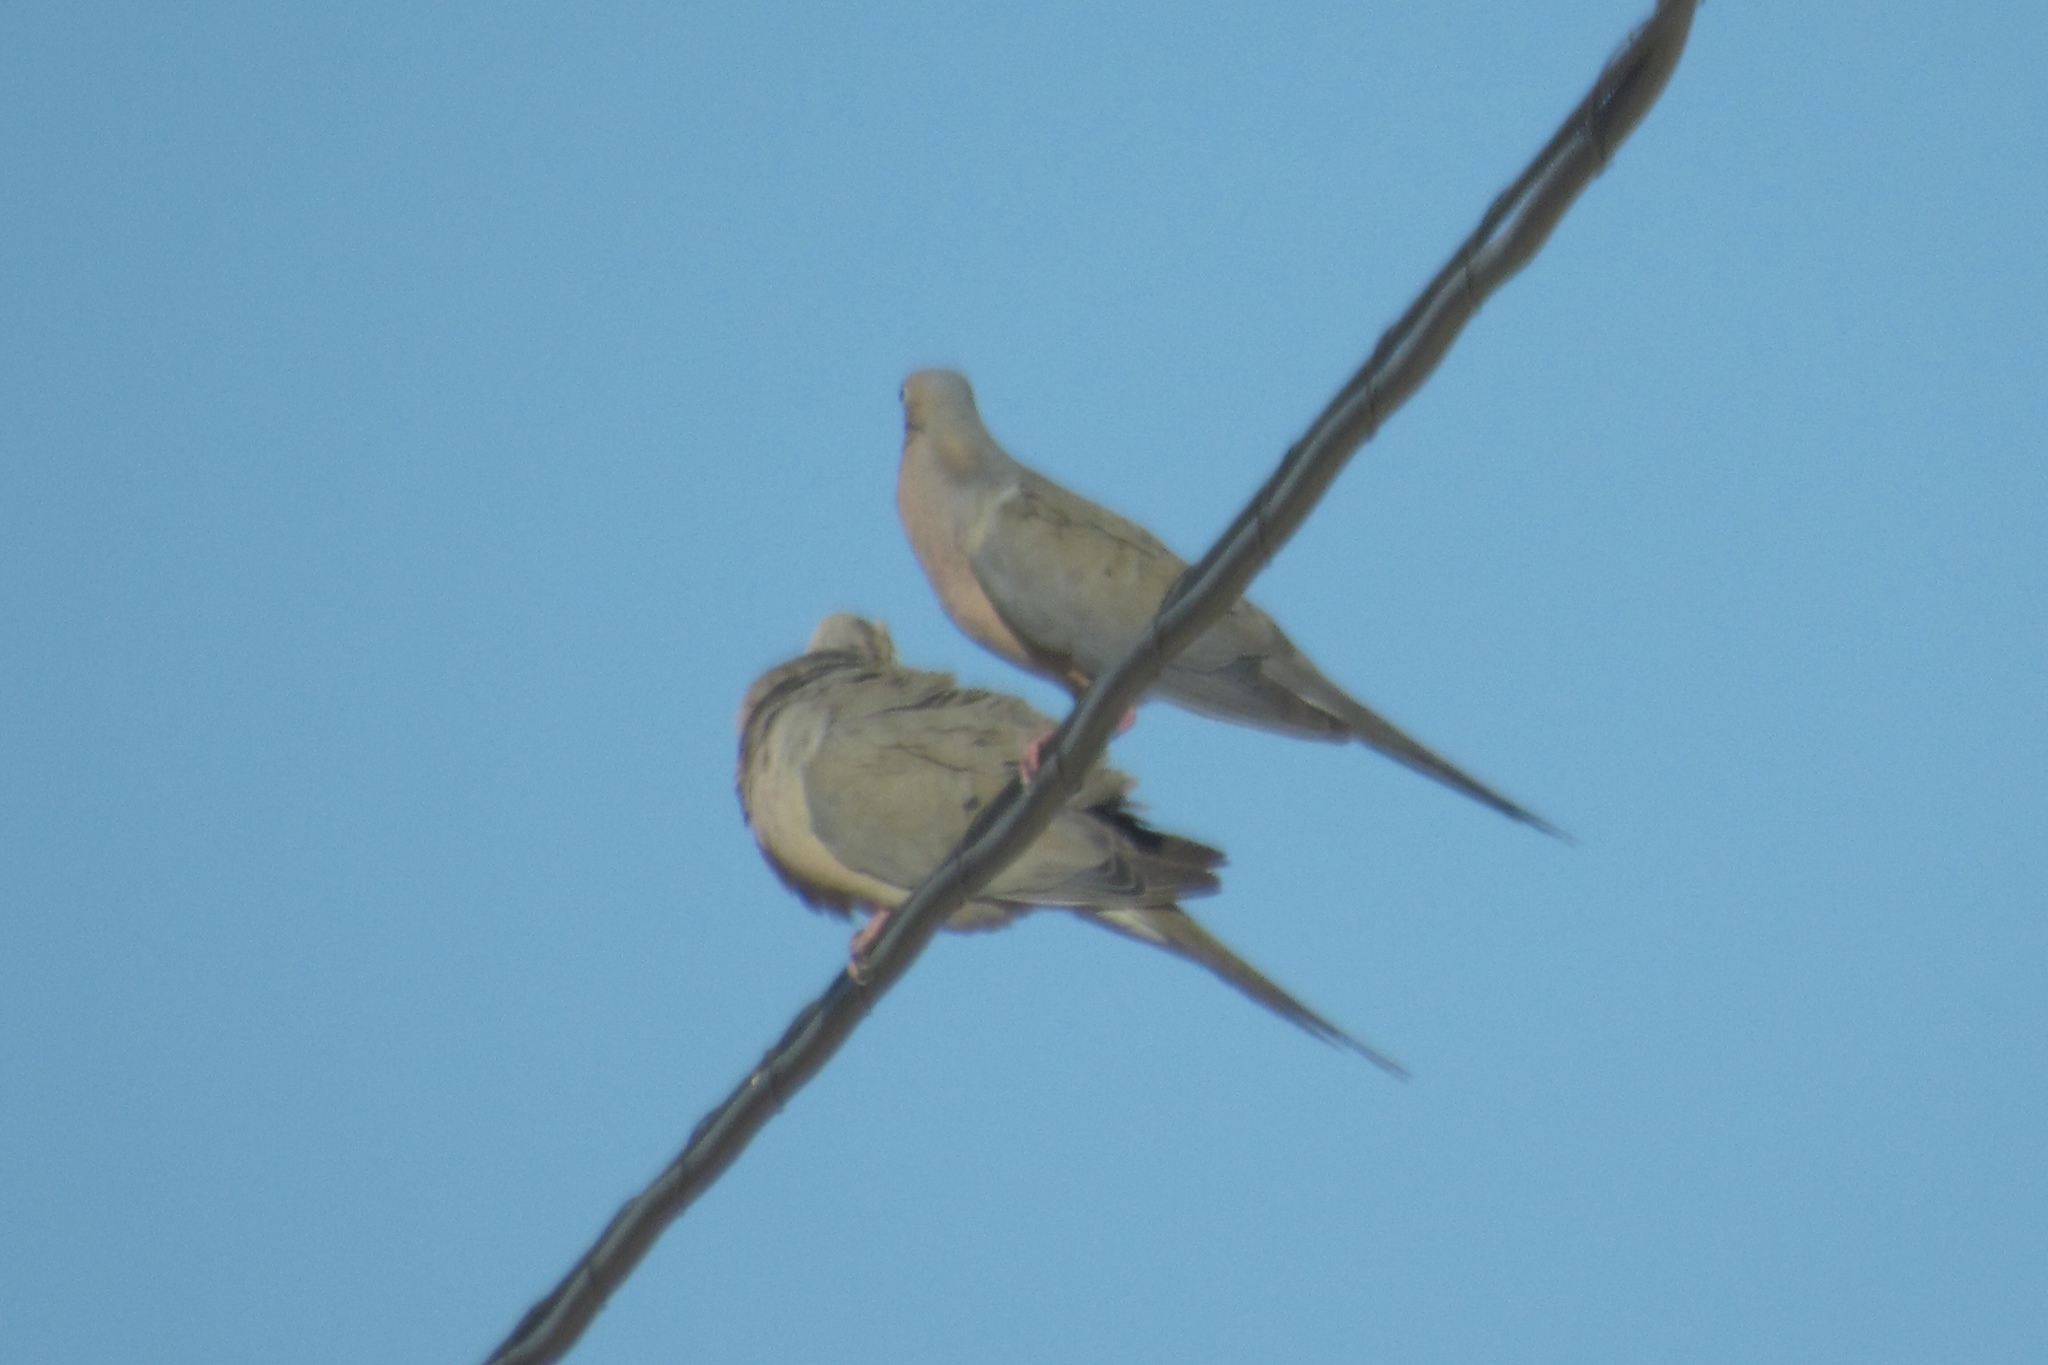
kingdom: Animalia
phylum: Chordata
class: Aves
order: Columbiformes
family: Columbidae
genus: Zenaida
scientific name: Zenaida macroura
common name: Mourning dove
